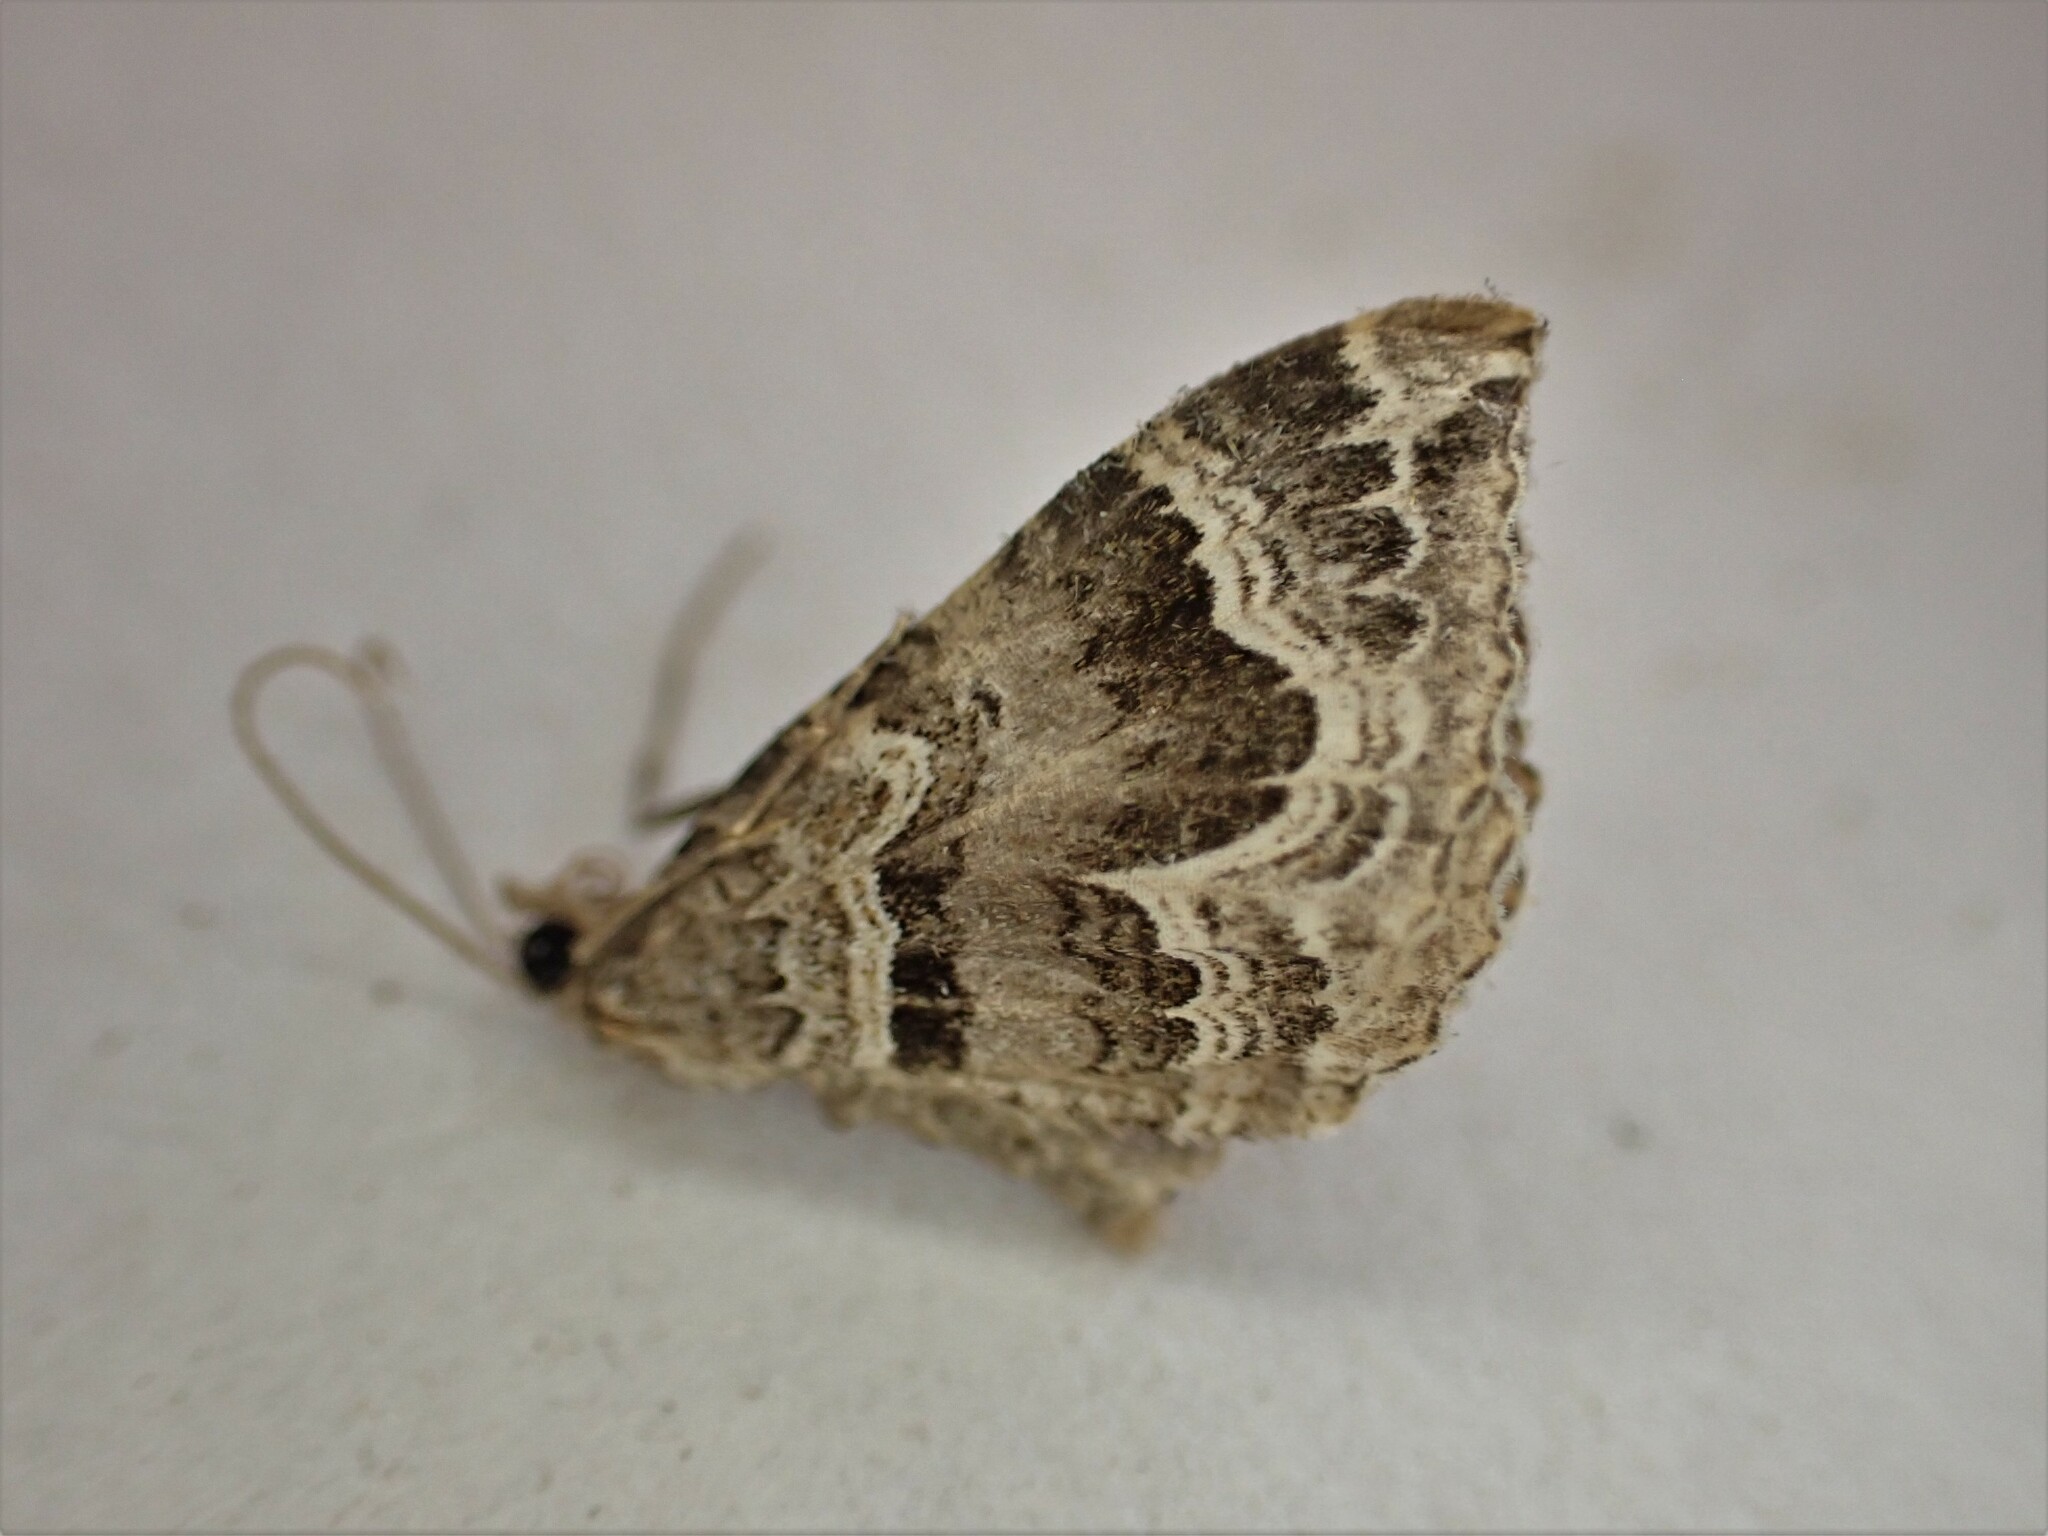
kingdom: Animalia
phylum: Arthropoda
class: Insecta
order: Lepidoptera
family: Geometridae
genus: Hydriomena
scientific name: Hydriomena deltoidata
